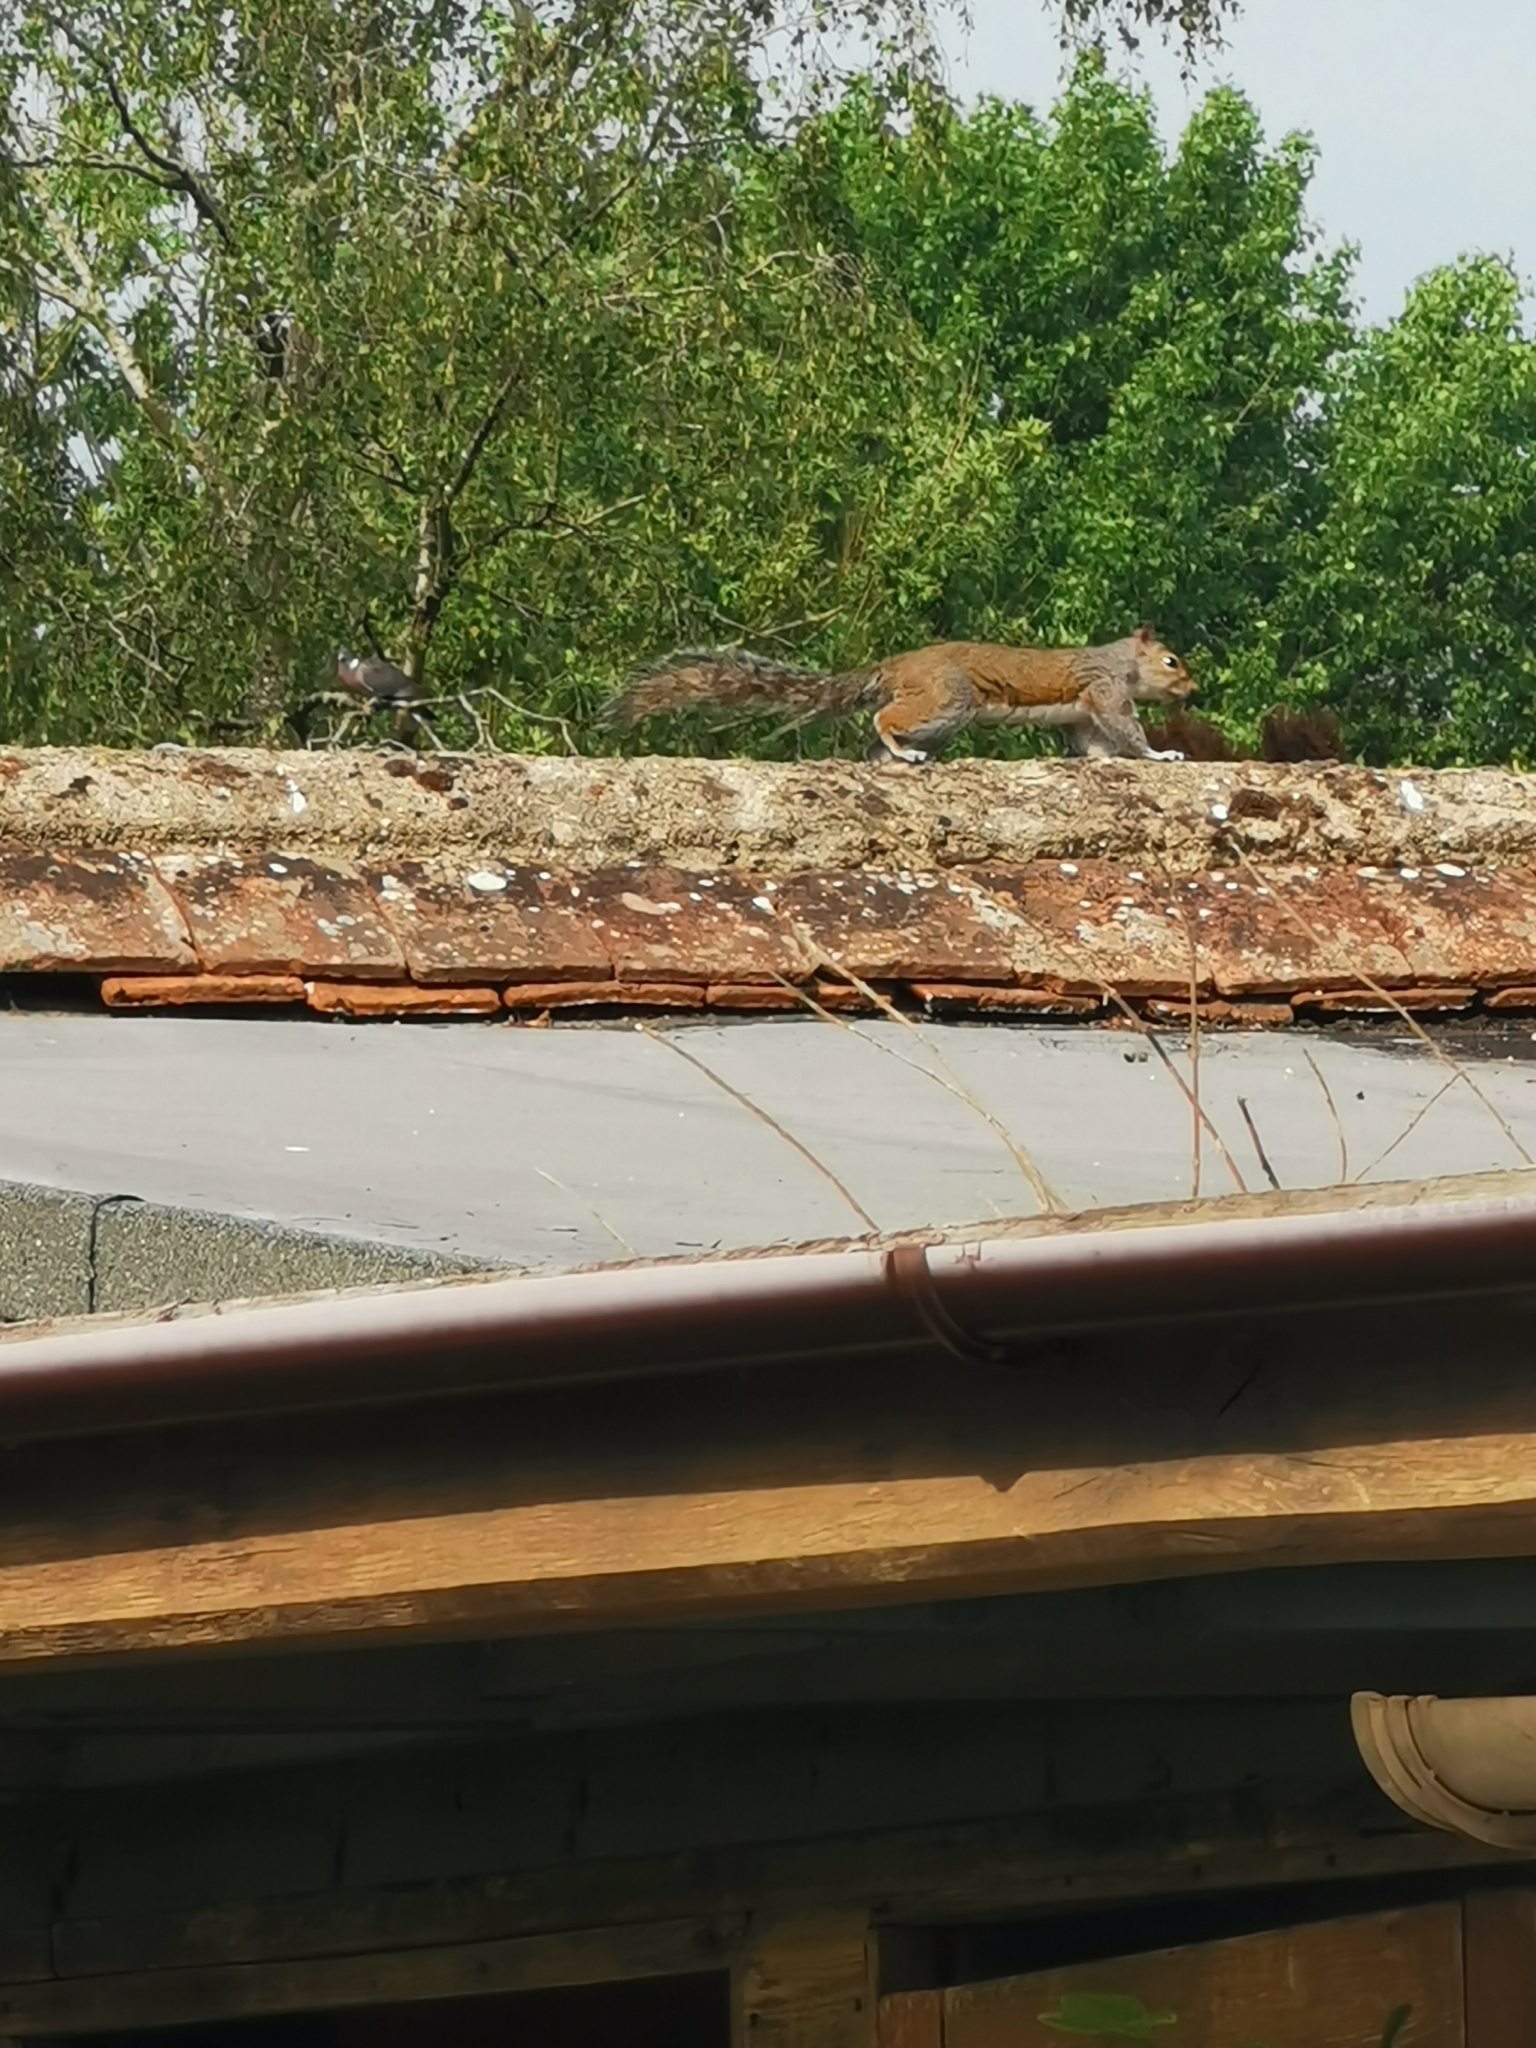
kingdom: Animalia
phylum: Chordata
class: Mammalia
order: Rodentia
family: Sciuridae
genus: Sciurus
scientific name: Sciurus carolinensis
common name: Eastern gray squirrel
